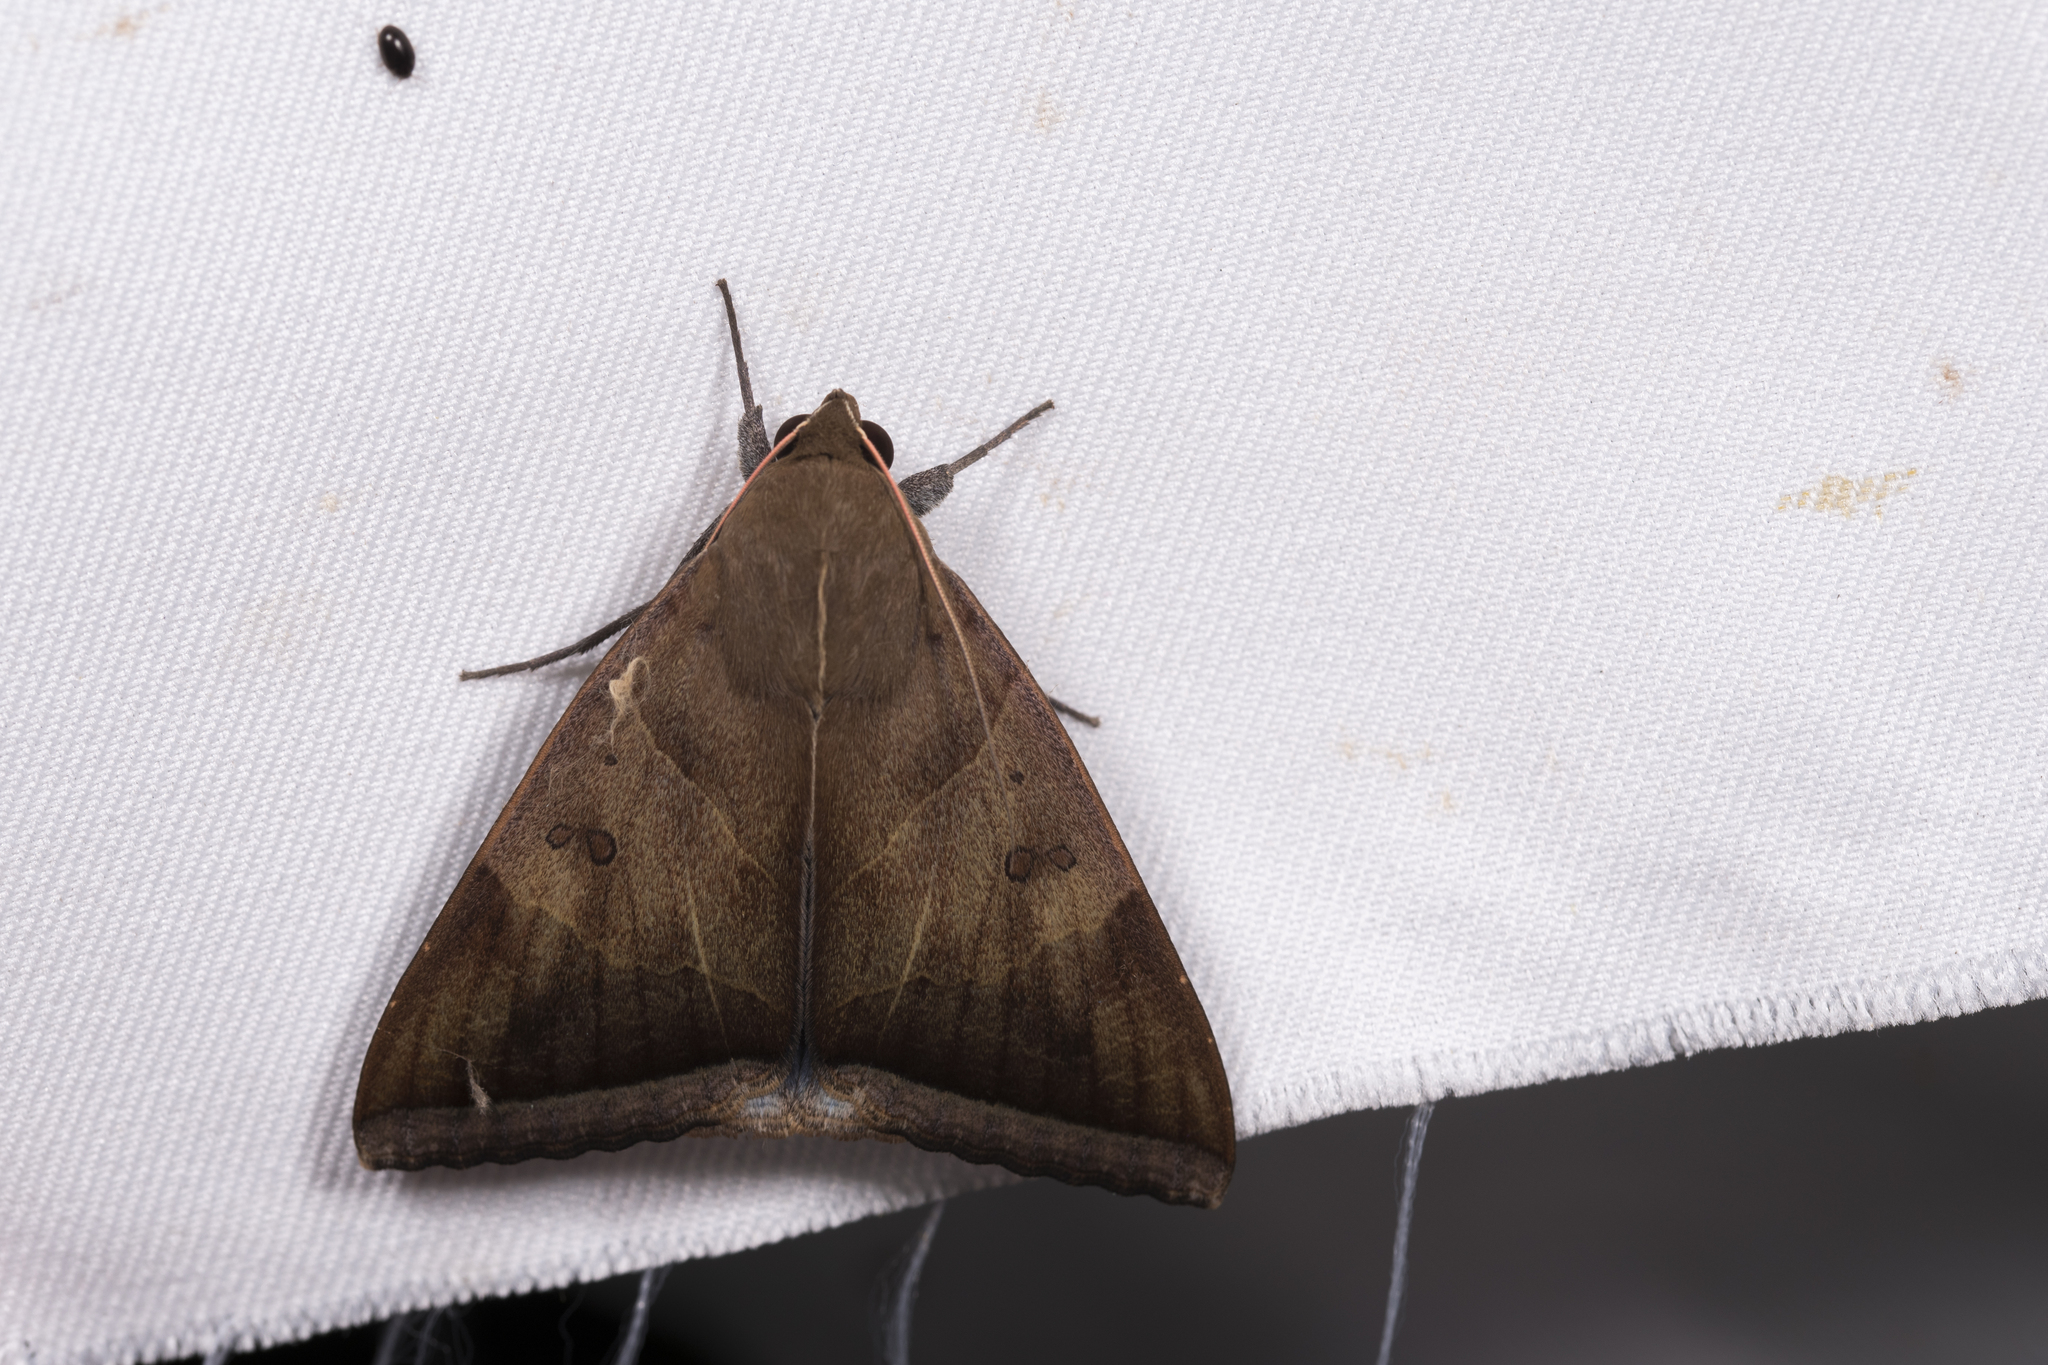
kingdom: Animalia
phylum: Arthropoda
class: Insecta
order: Lepidoptera
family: Erebidae
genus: Artena
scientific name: Artena dotata
